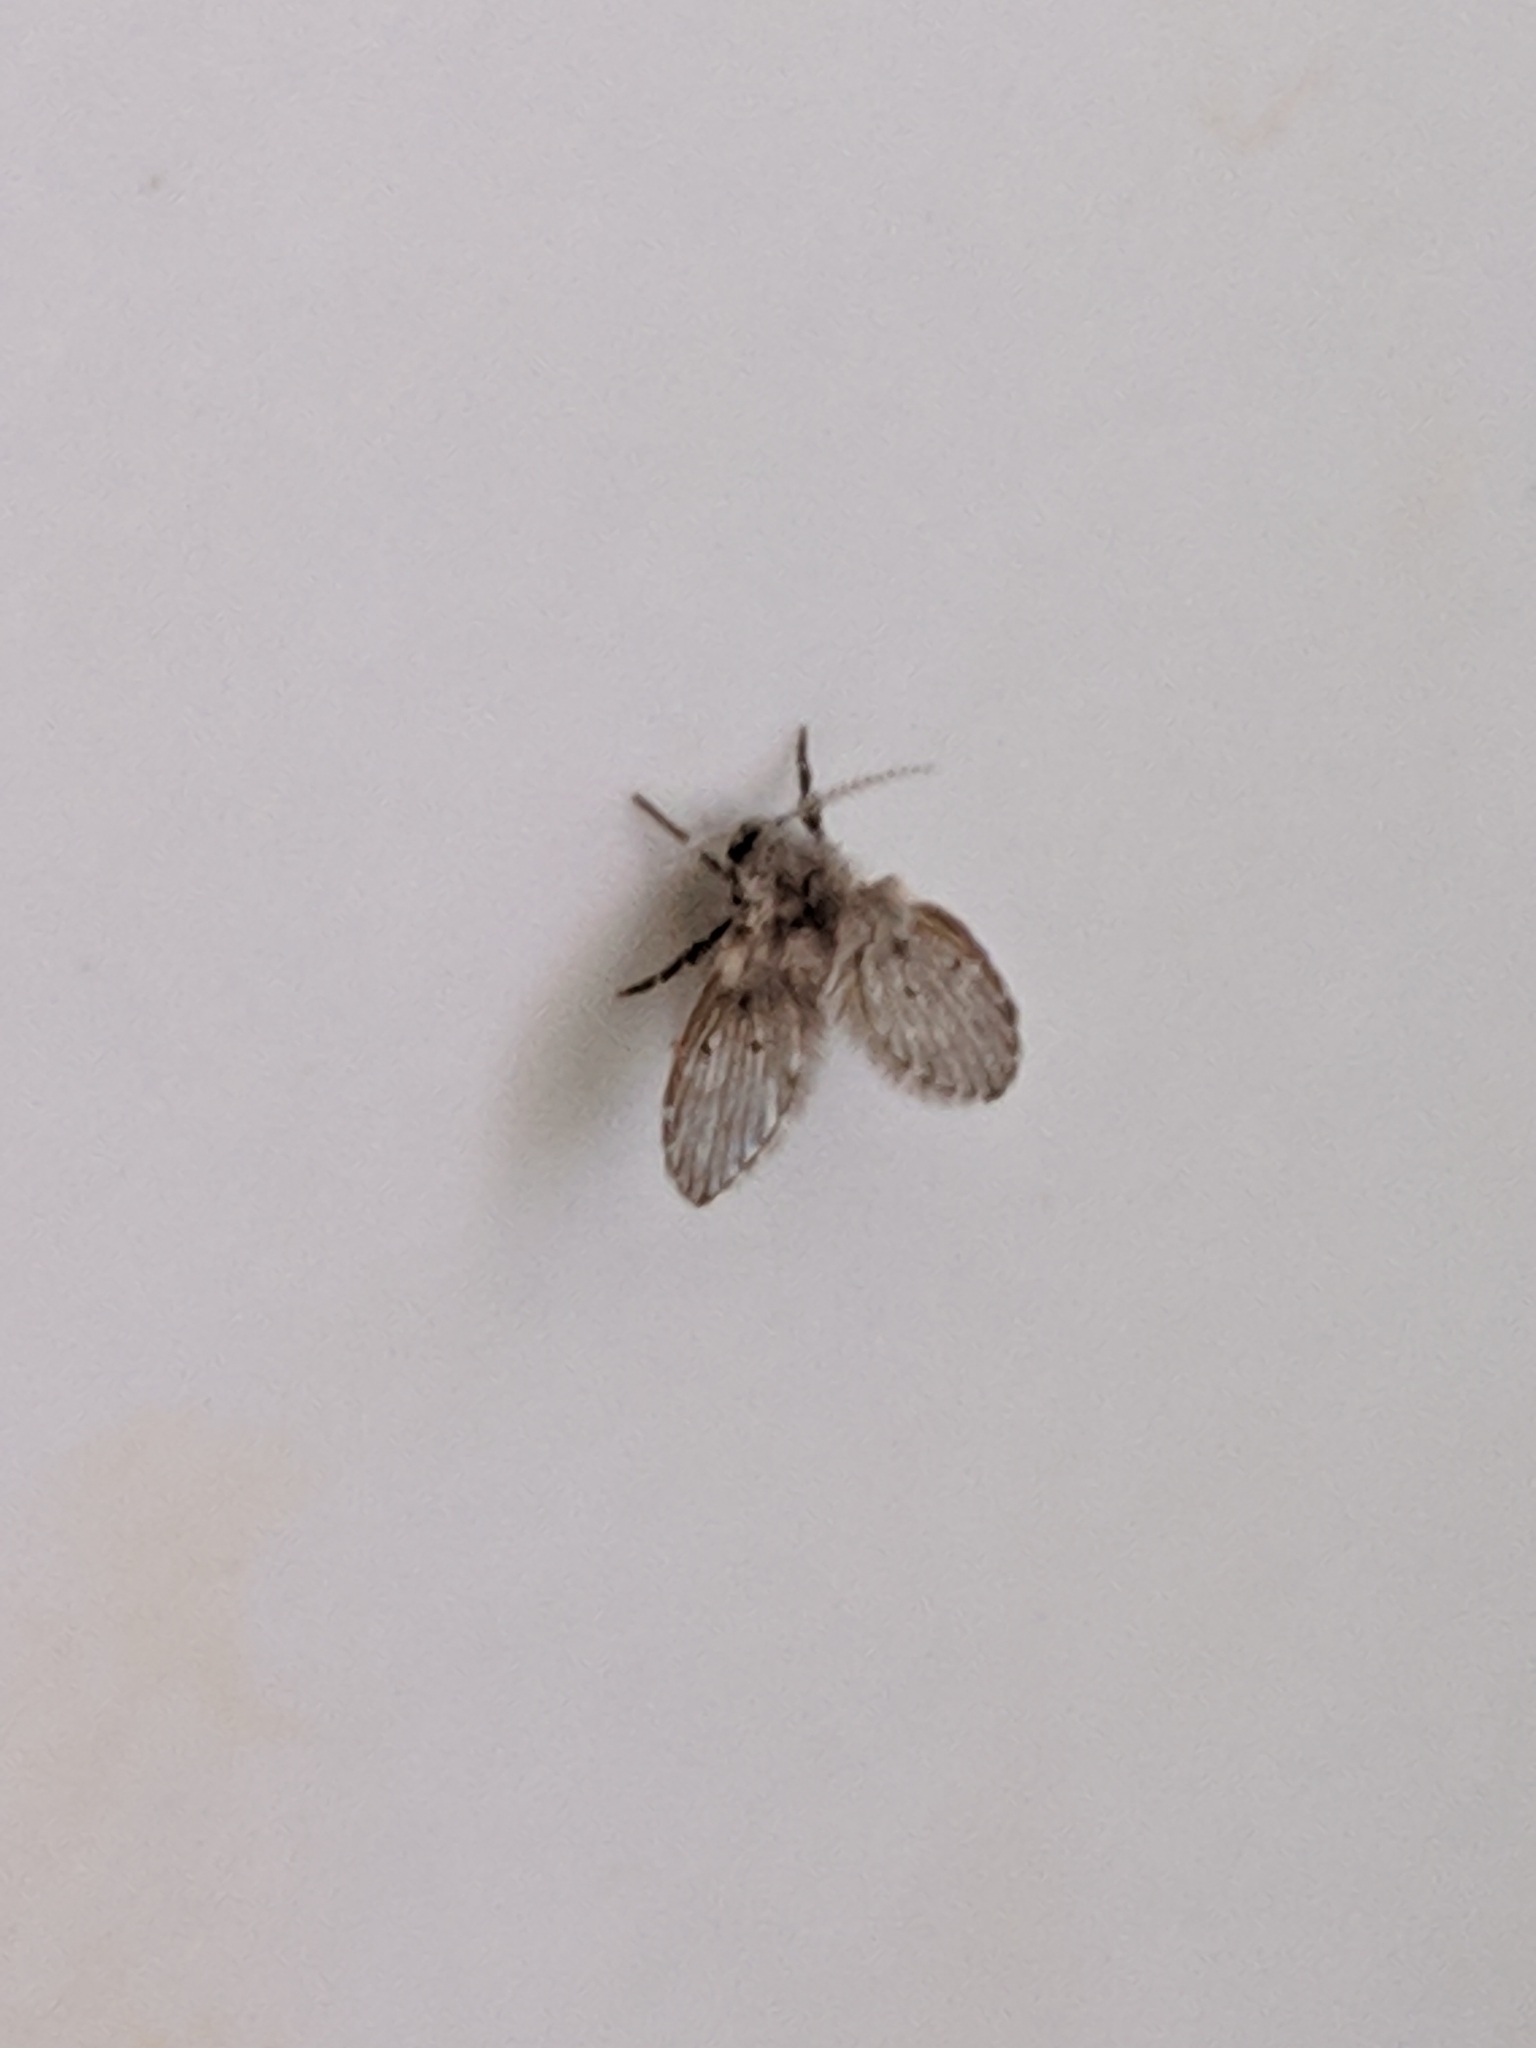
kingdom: Animalia
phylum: Arthropoda
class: Insecta
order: Diptera
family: Psychodidae
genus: Clogmia
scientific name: Clogmia albipunctatus
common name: White-spotted moth fly
